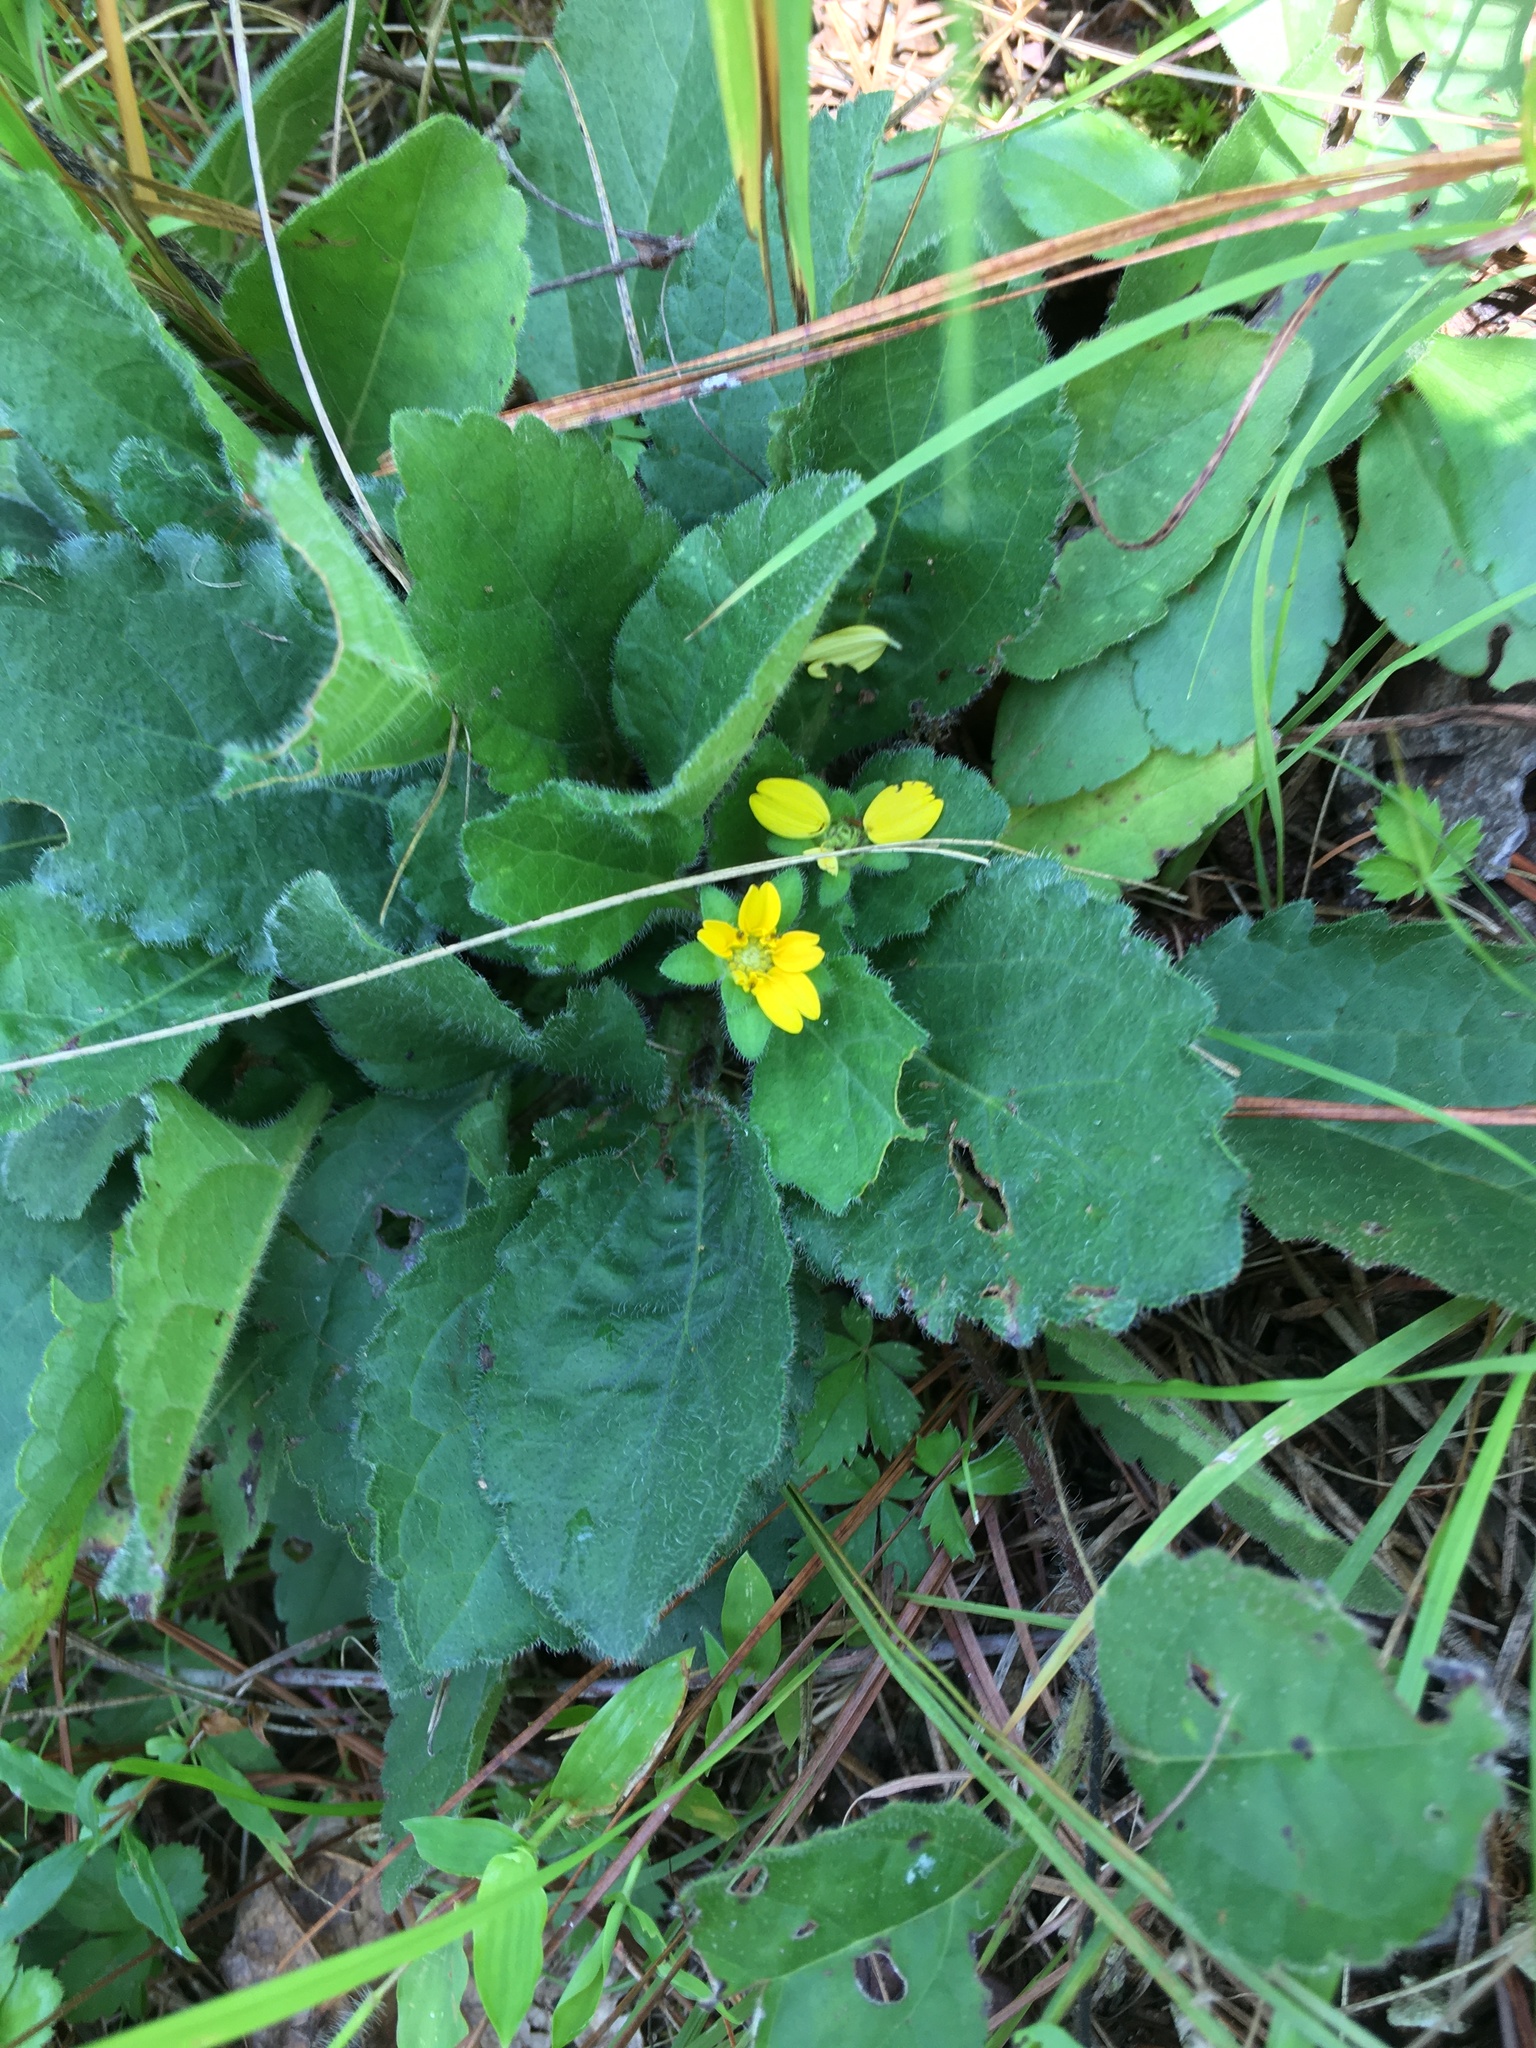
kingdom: Plantae
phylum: Tracheophyta
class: Magnoliopsida
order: Asterales
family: Asteraceae
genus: Chrysogonum
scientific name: Chrysogonum virginianum
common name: Golden-knee
